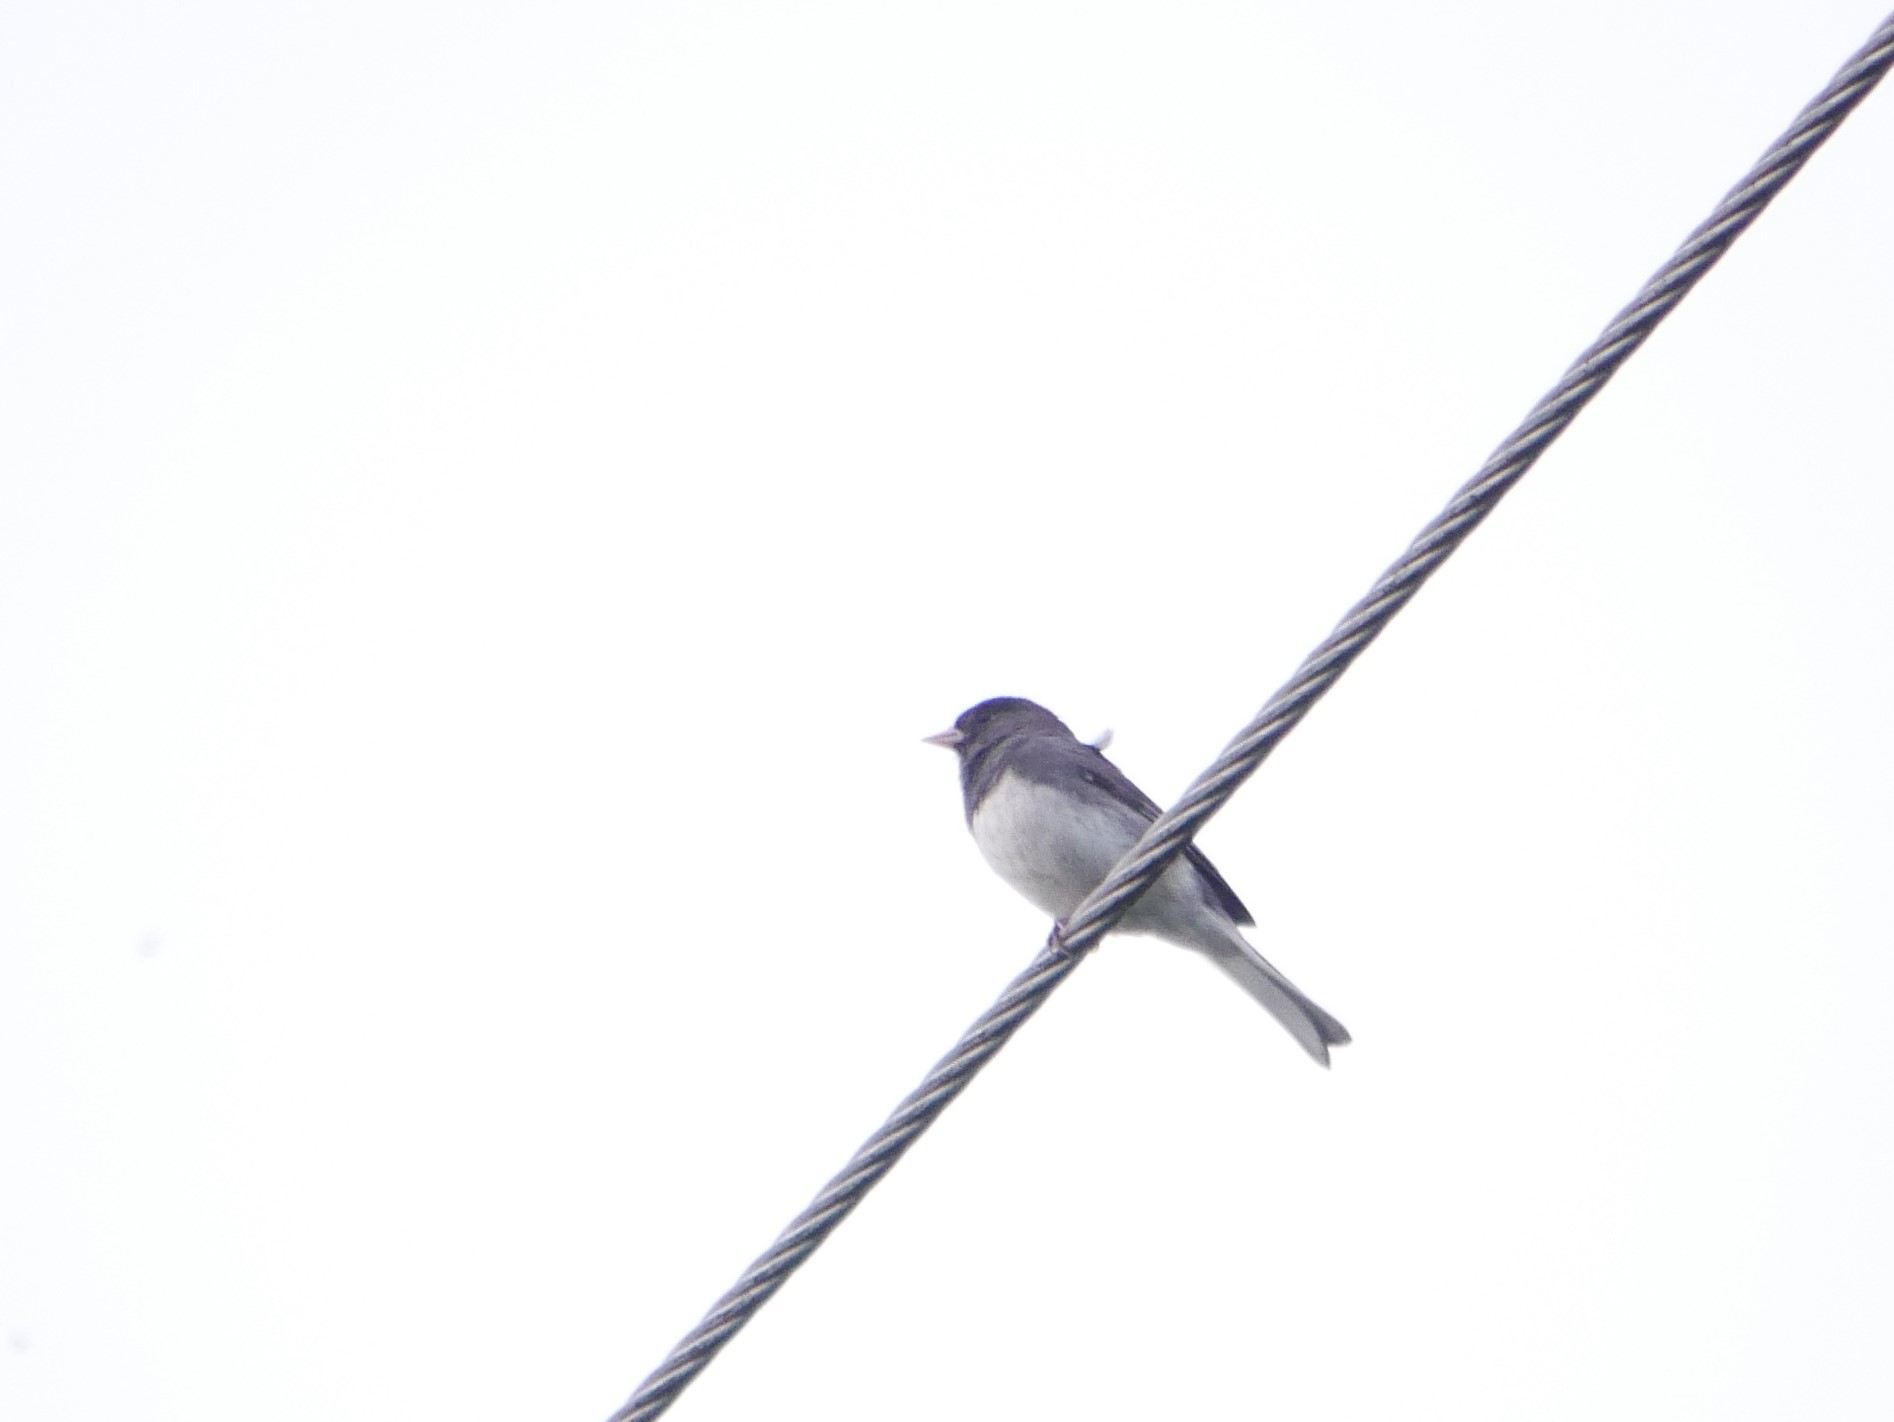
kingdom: Animalia
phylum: Chordata
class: Aves
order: Passeriformes
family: Passerellidae
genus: Junco
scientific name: Junco hyemalis
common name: Dark-eyed junco
